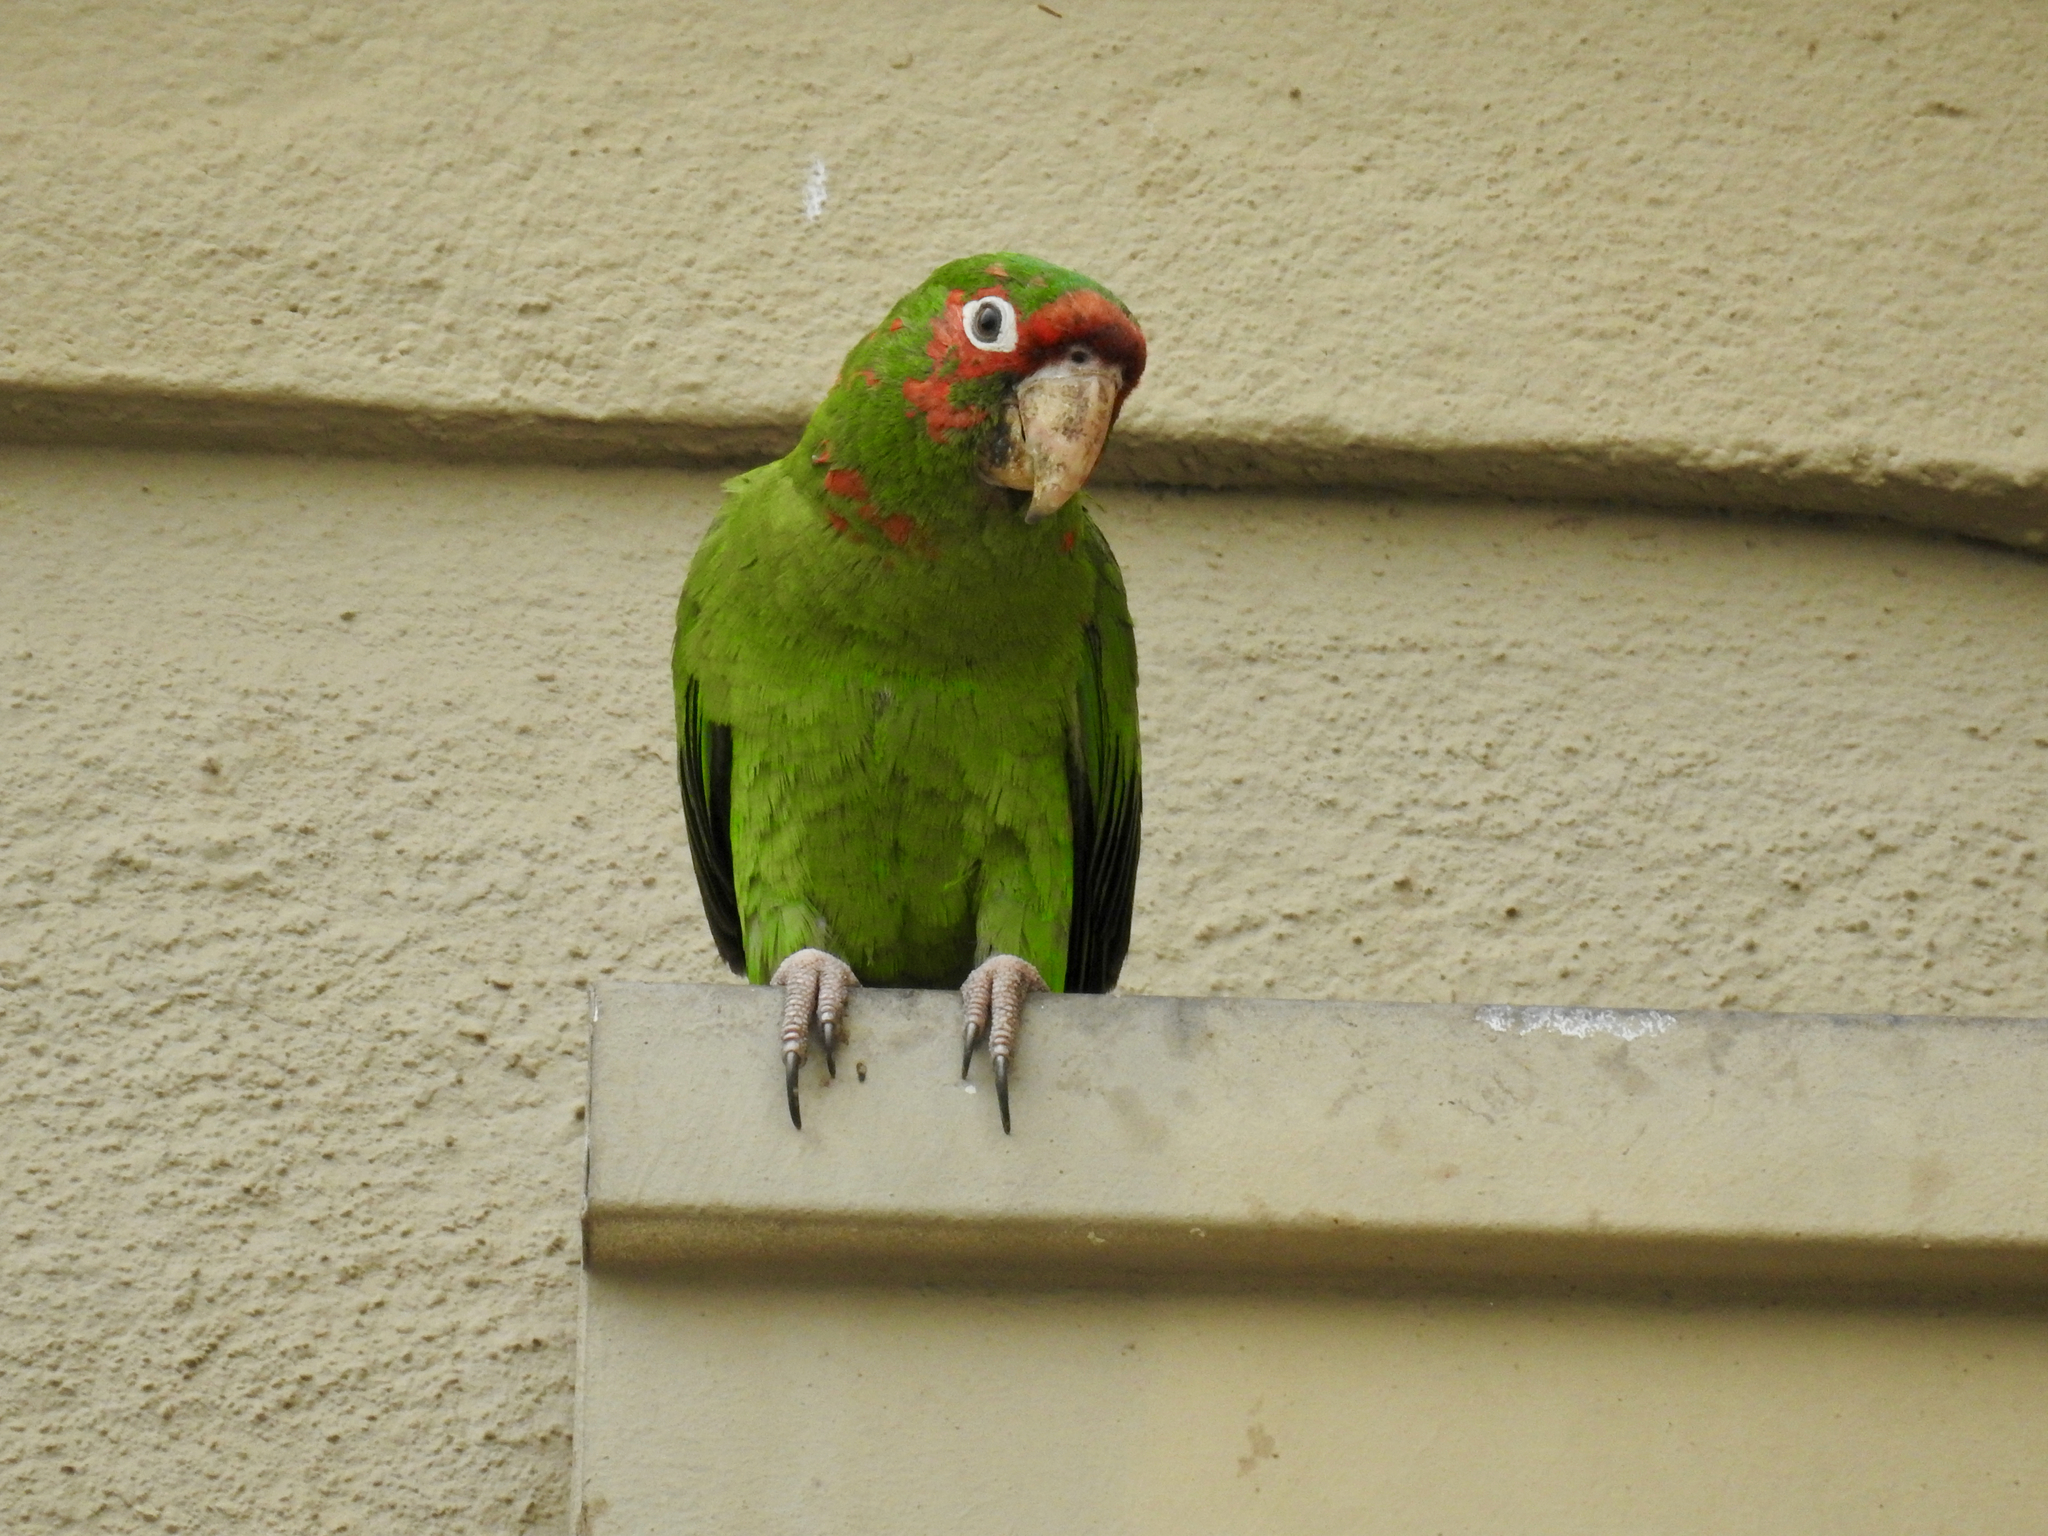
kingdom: Animalia
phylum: Chordata
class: Aves
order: Psittaciformes
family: Psittacidae
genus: Aratinga
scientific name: Aratinga mitrata
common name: Mitred parakeet
